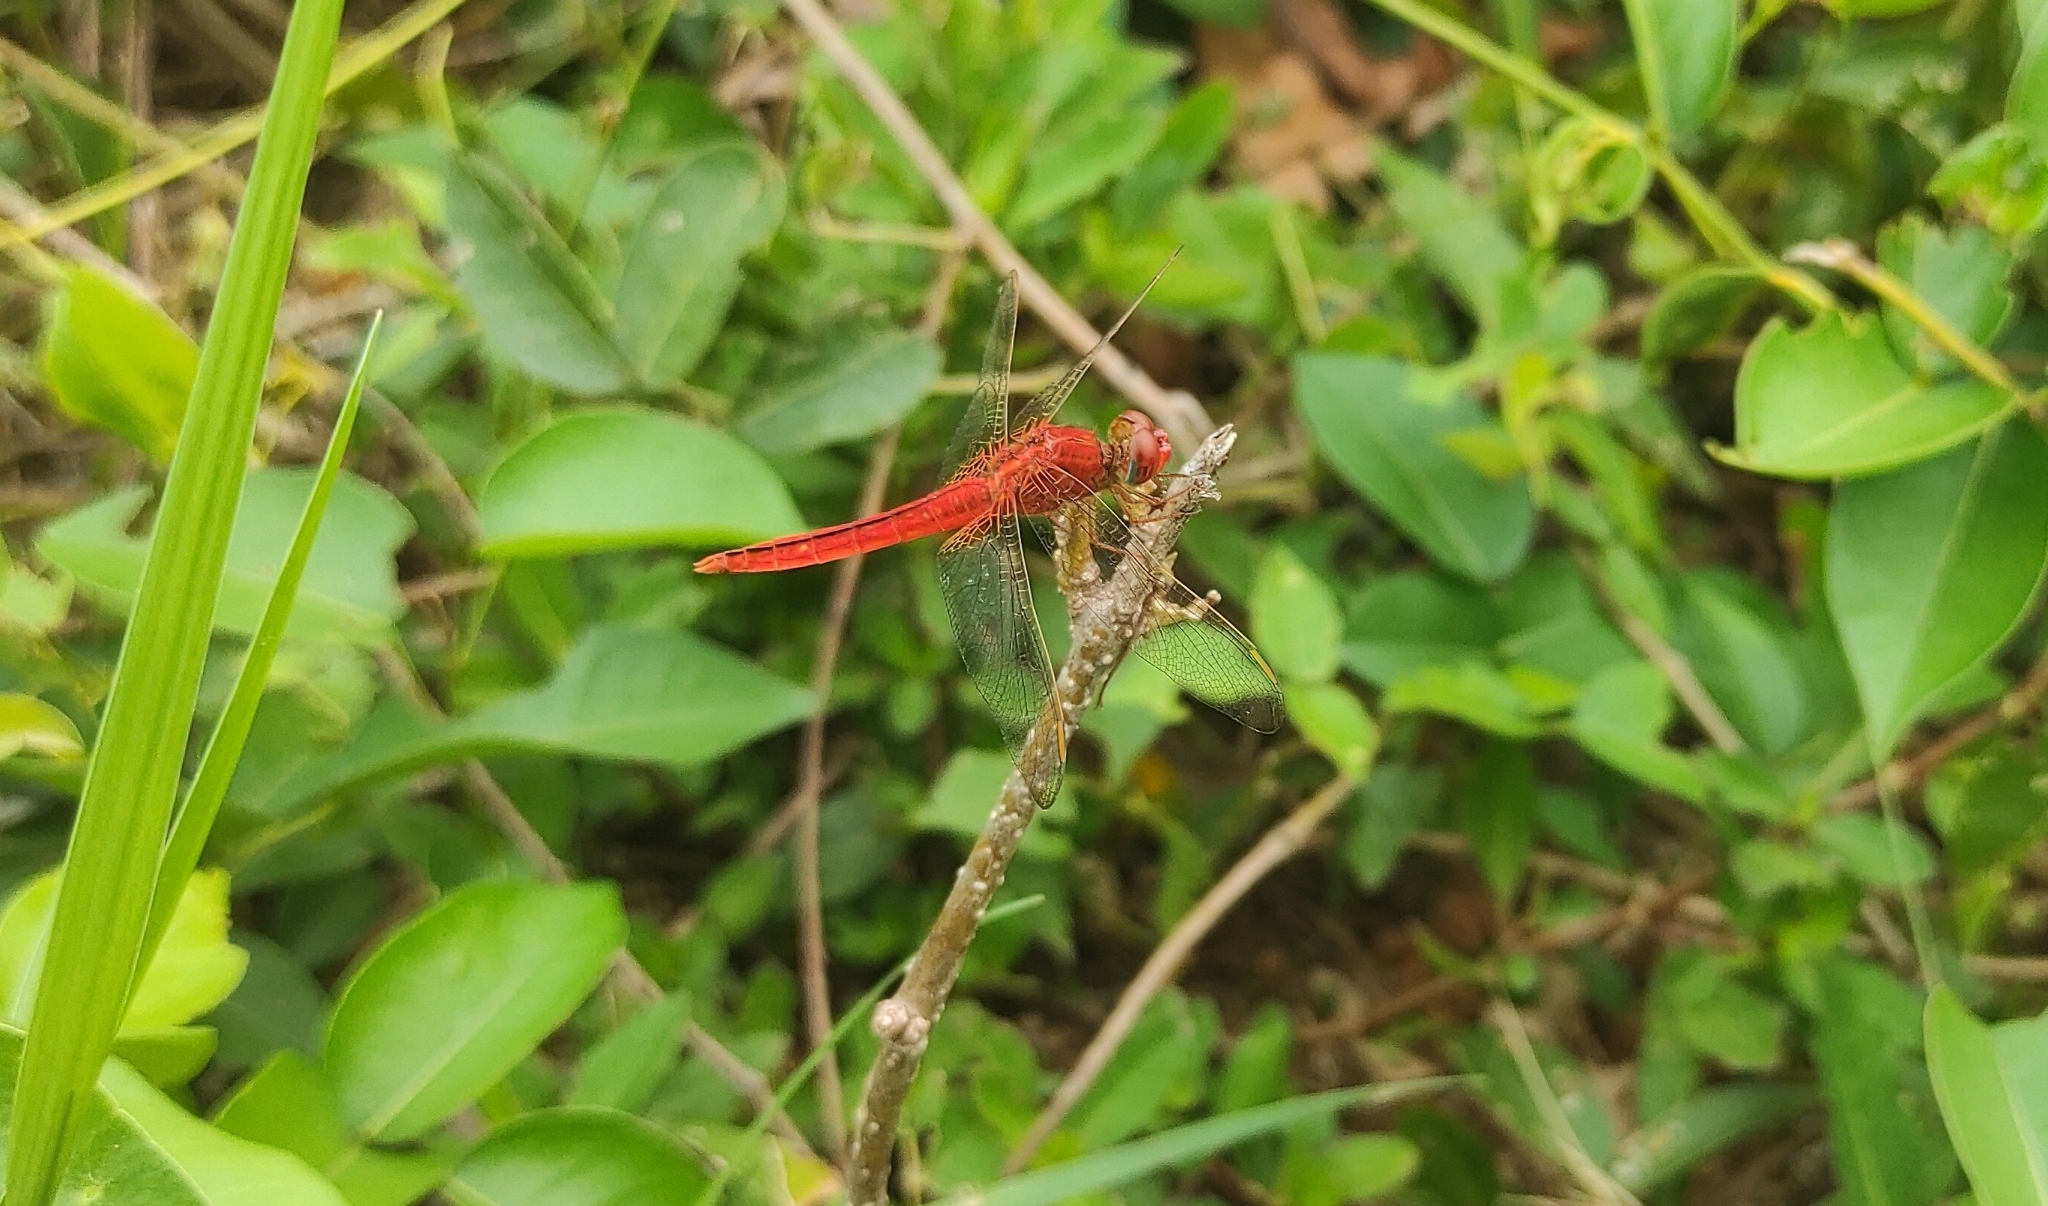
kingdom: Animalia
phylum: Arthropoda
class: Insecta
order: Odonata
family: Libellulidae
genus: Crocothemis
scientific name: Crocothemis servilia
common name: Scarlet skimmer
